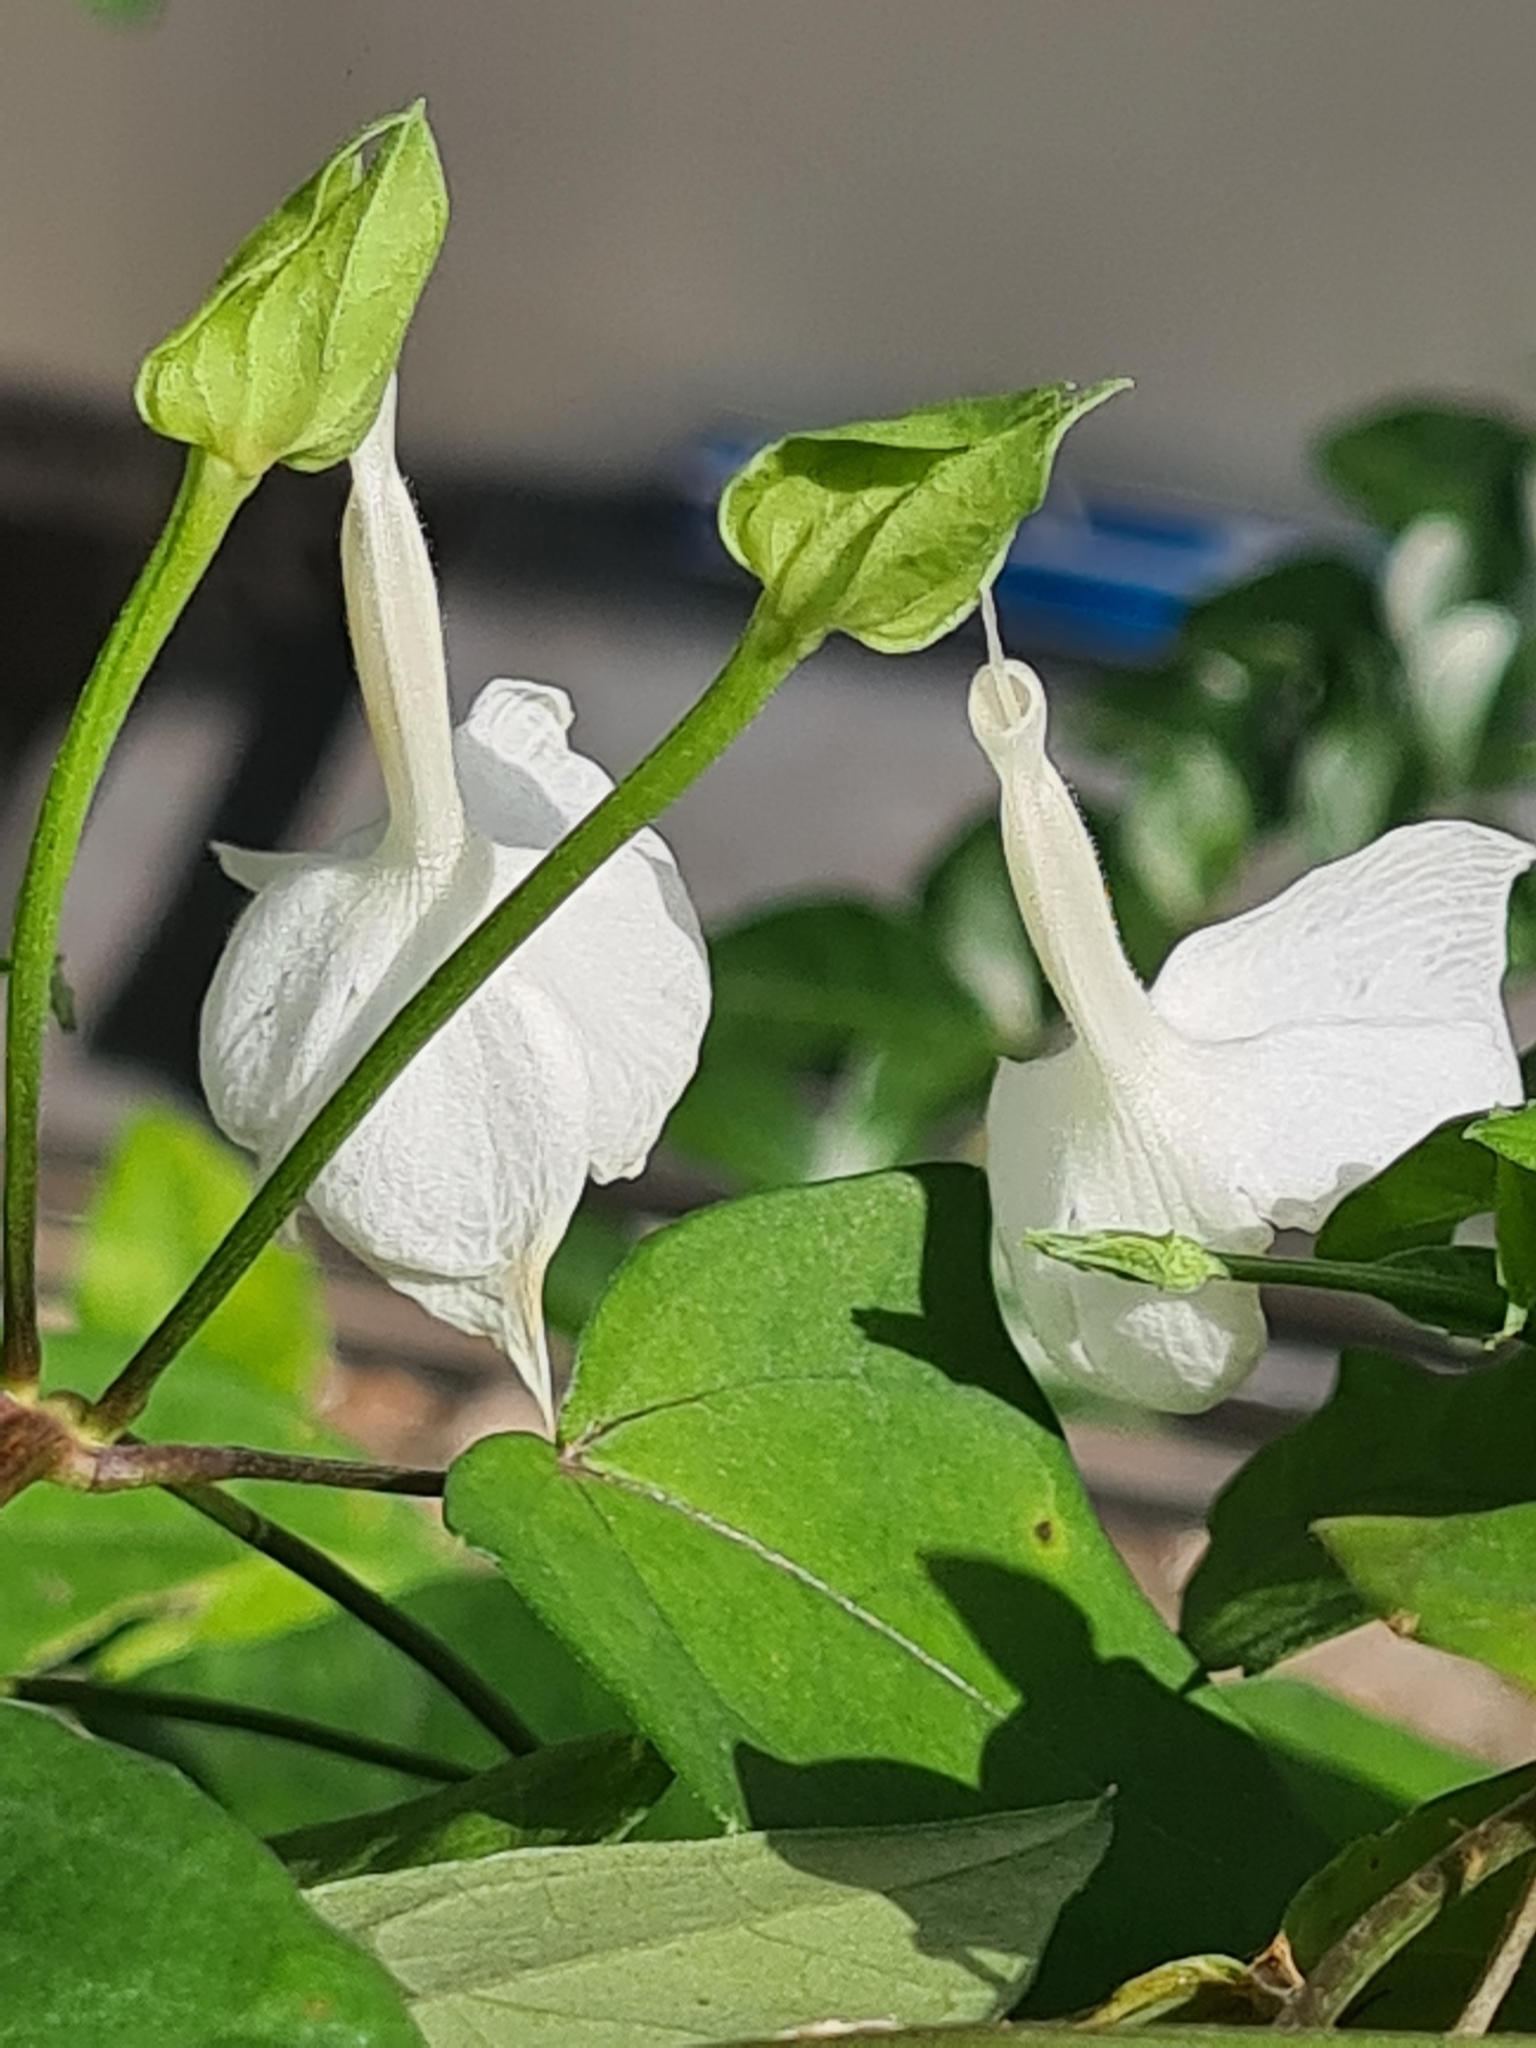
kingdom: Plantae
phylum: Tracheophyta
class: Magnoliopsida
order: Lamiales
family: Acanthaceae
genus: Thunbergia
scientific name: Thunbergia fragrans
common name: Whitelady
